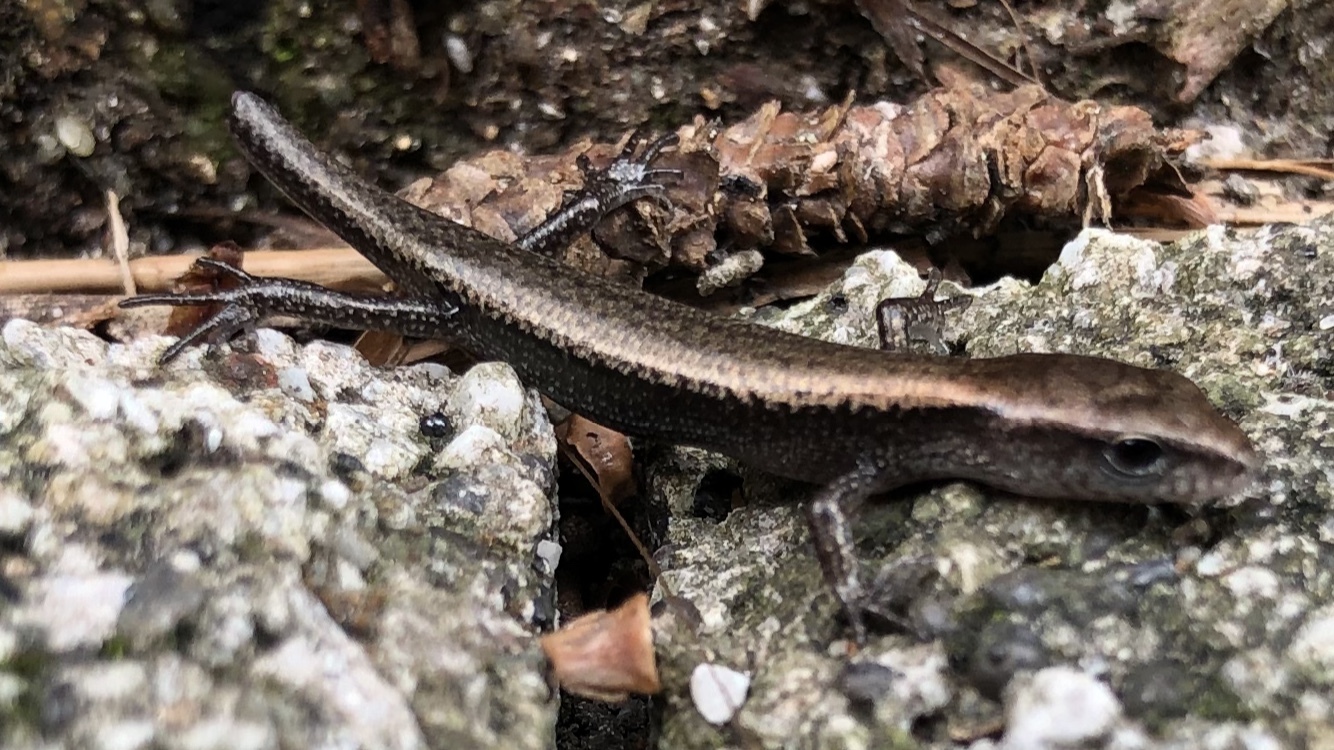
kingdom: Animalia
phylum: Chordata
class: Squamata
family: Scincidae
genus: Scincella
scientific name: Scincella vandenburghi
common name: Tsushima smooth skink
